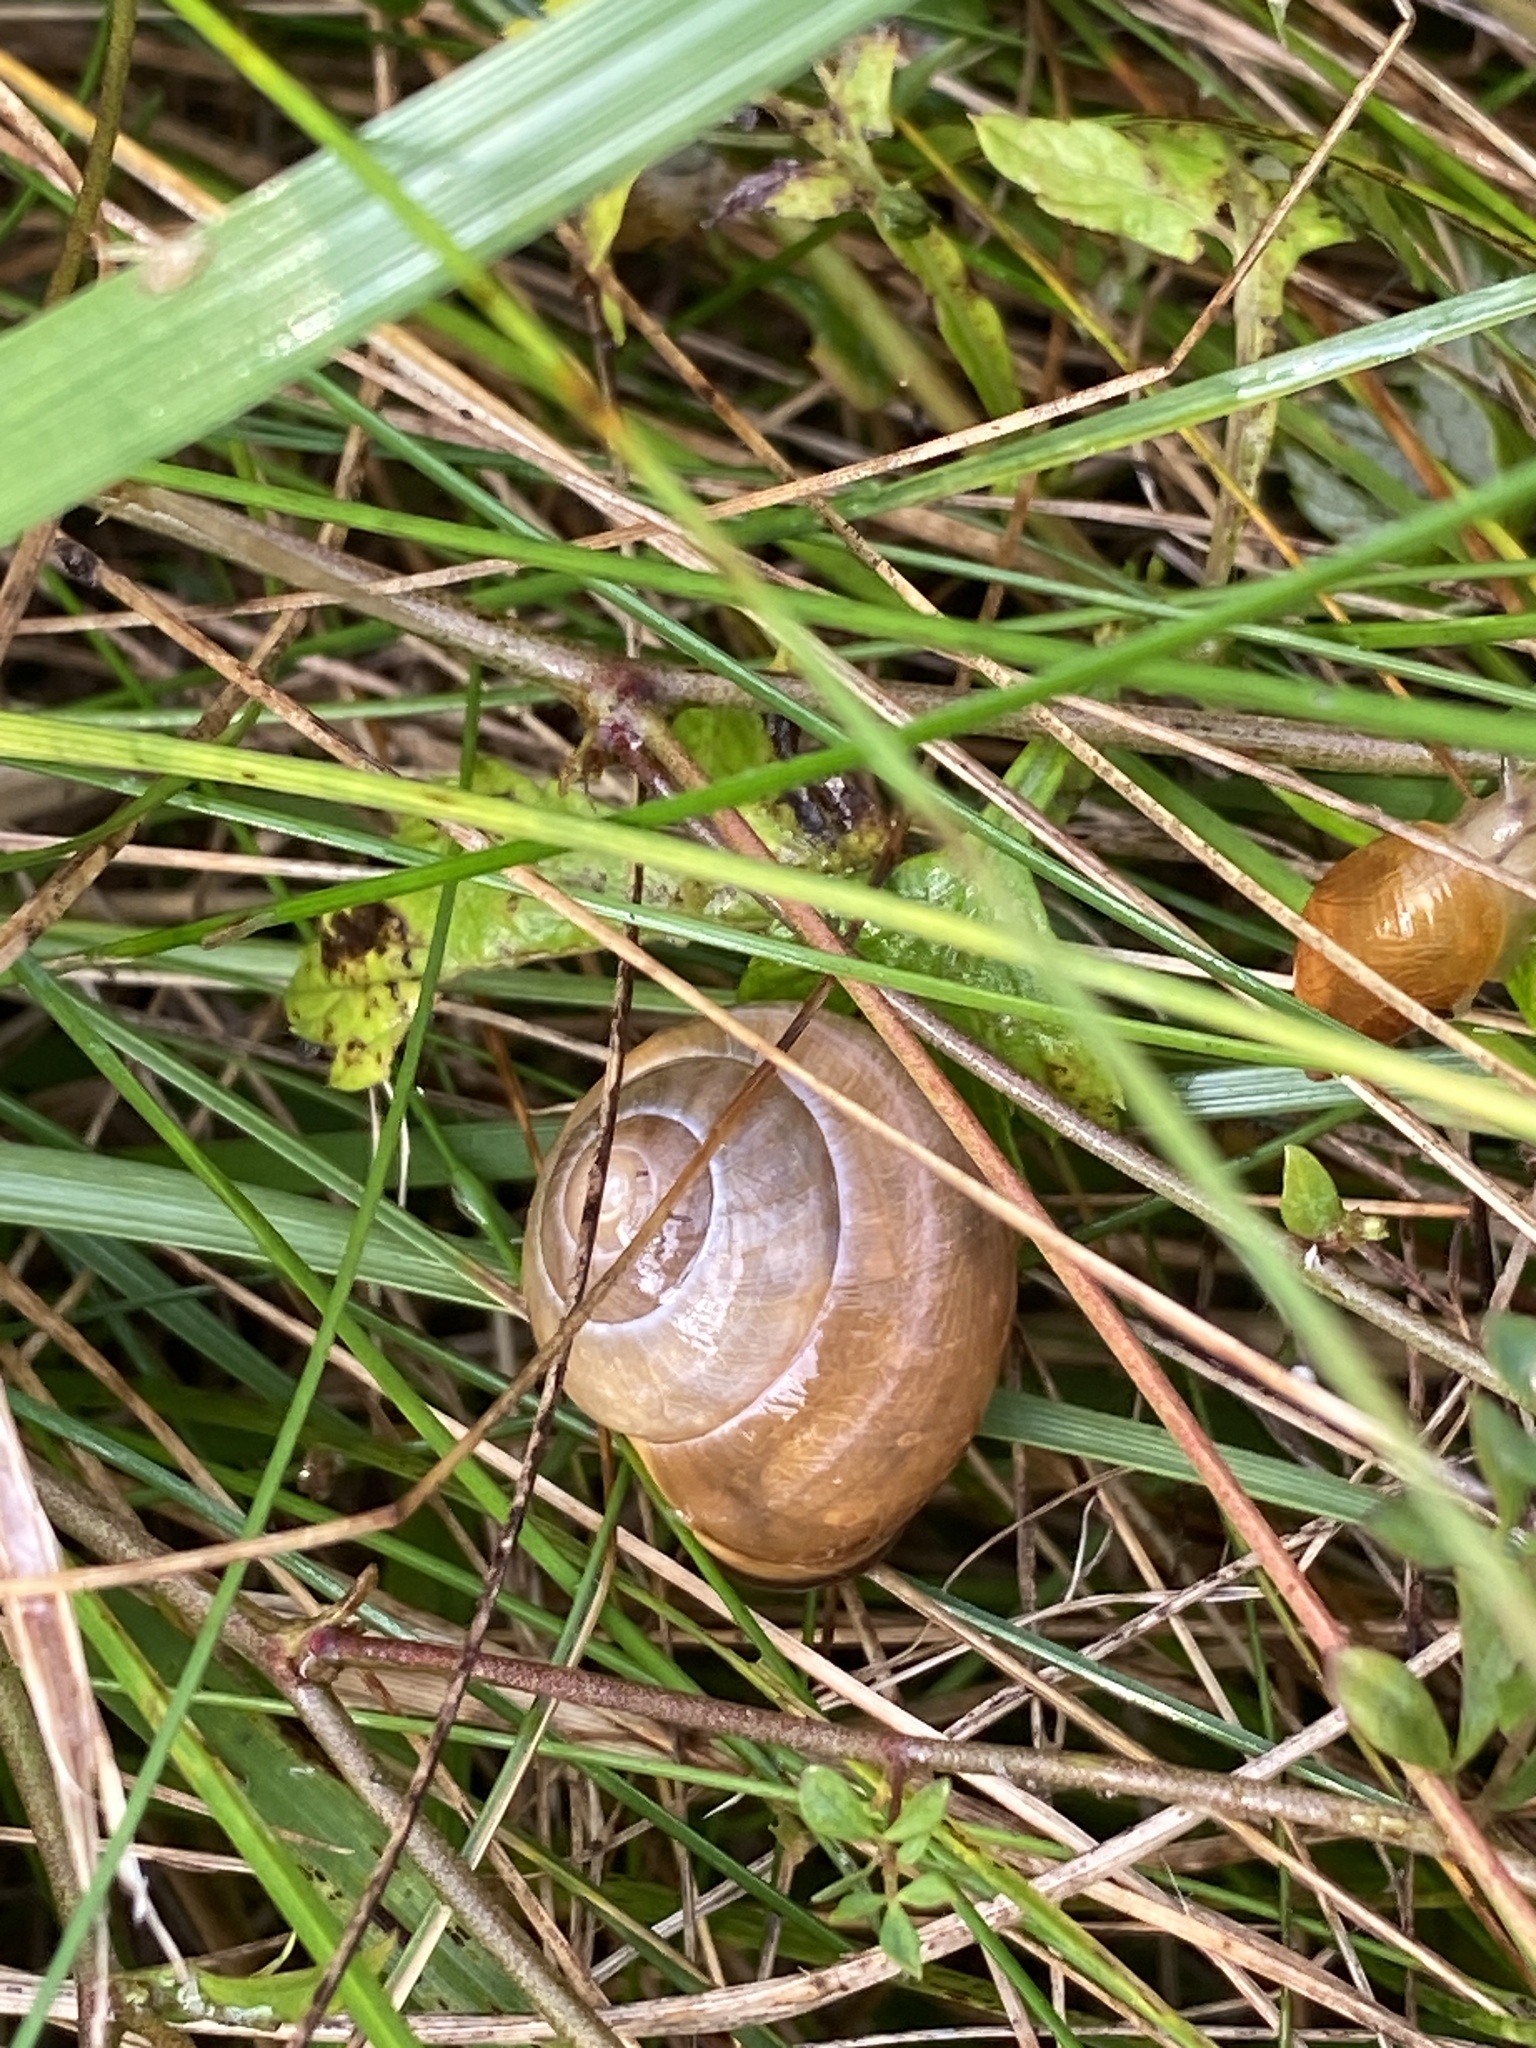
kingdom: Animalia
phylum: Mollusca
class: Gastropoda
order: Stylommatophora
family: Helicidae
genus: Cepaea
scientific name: Cepaea nemoralis
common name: Grovesnail
